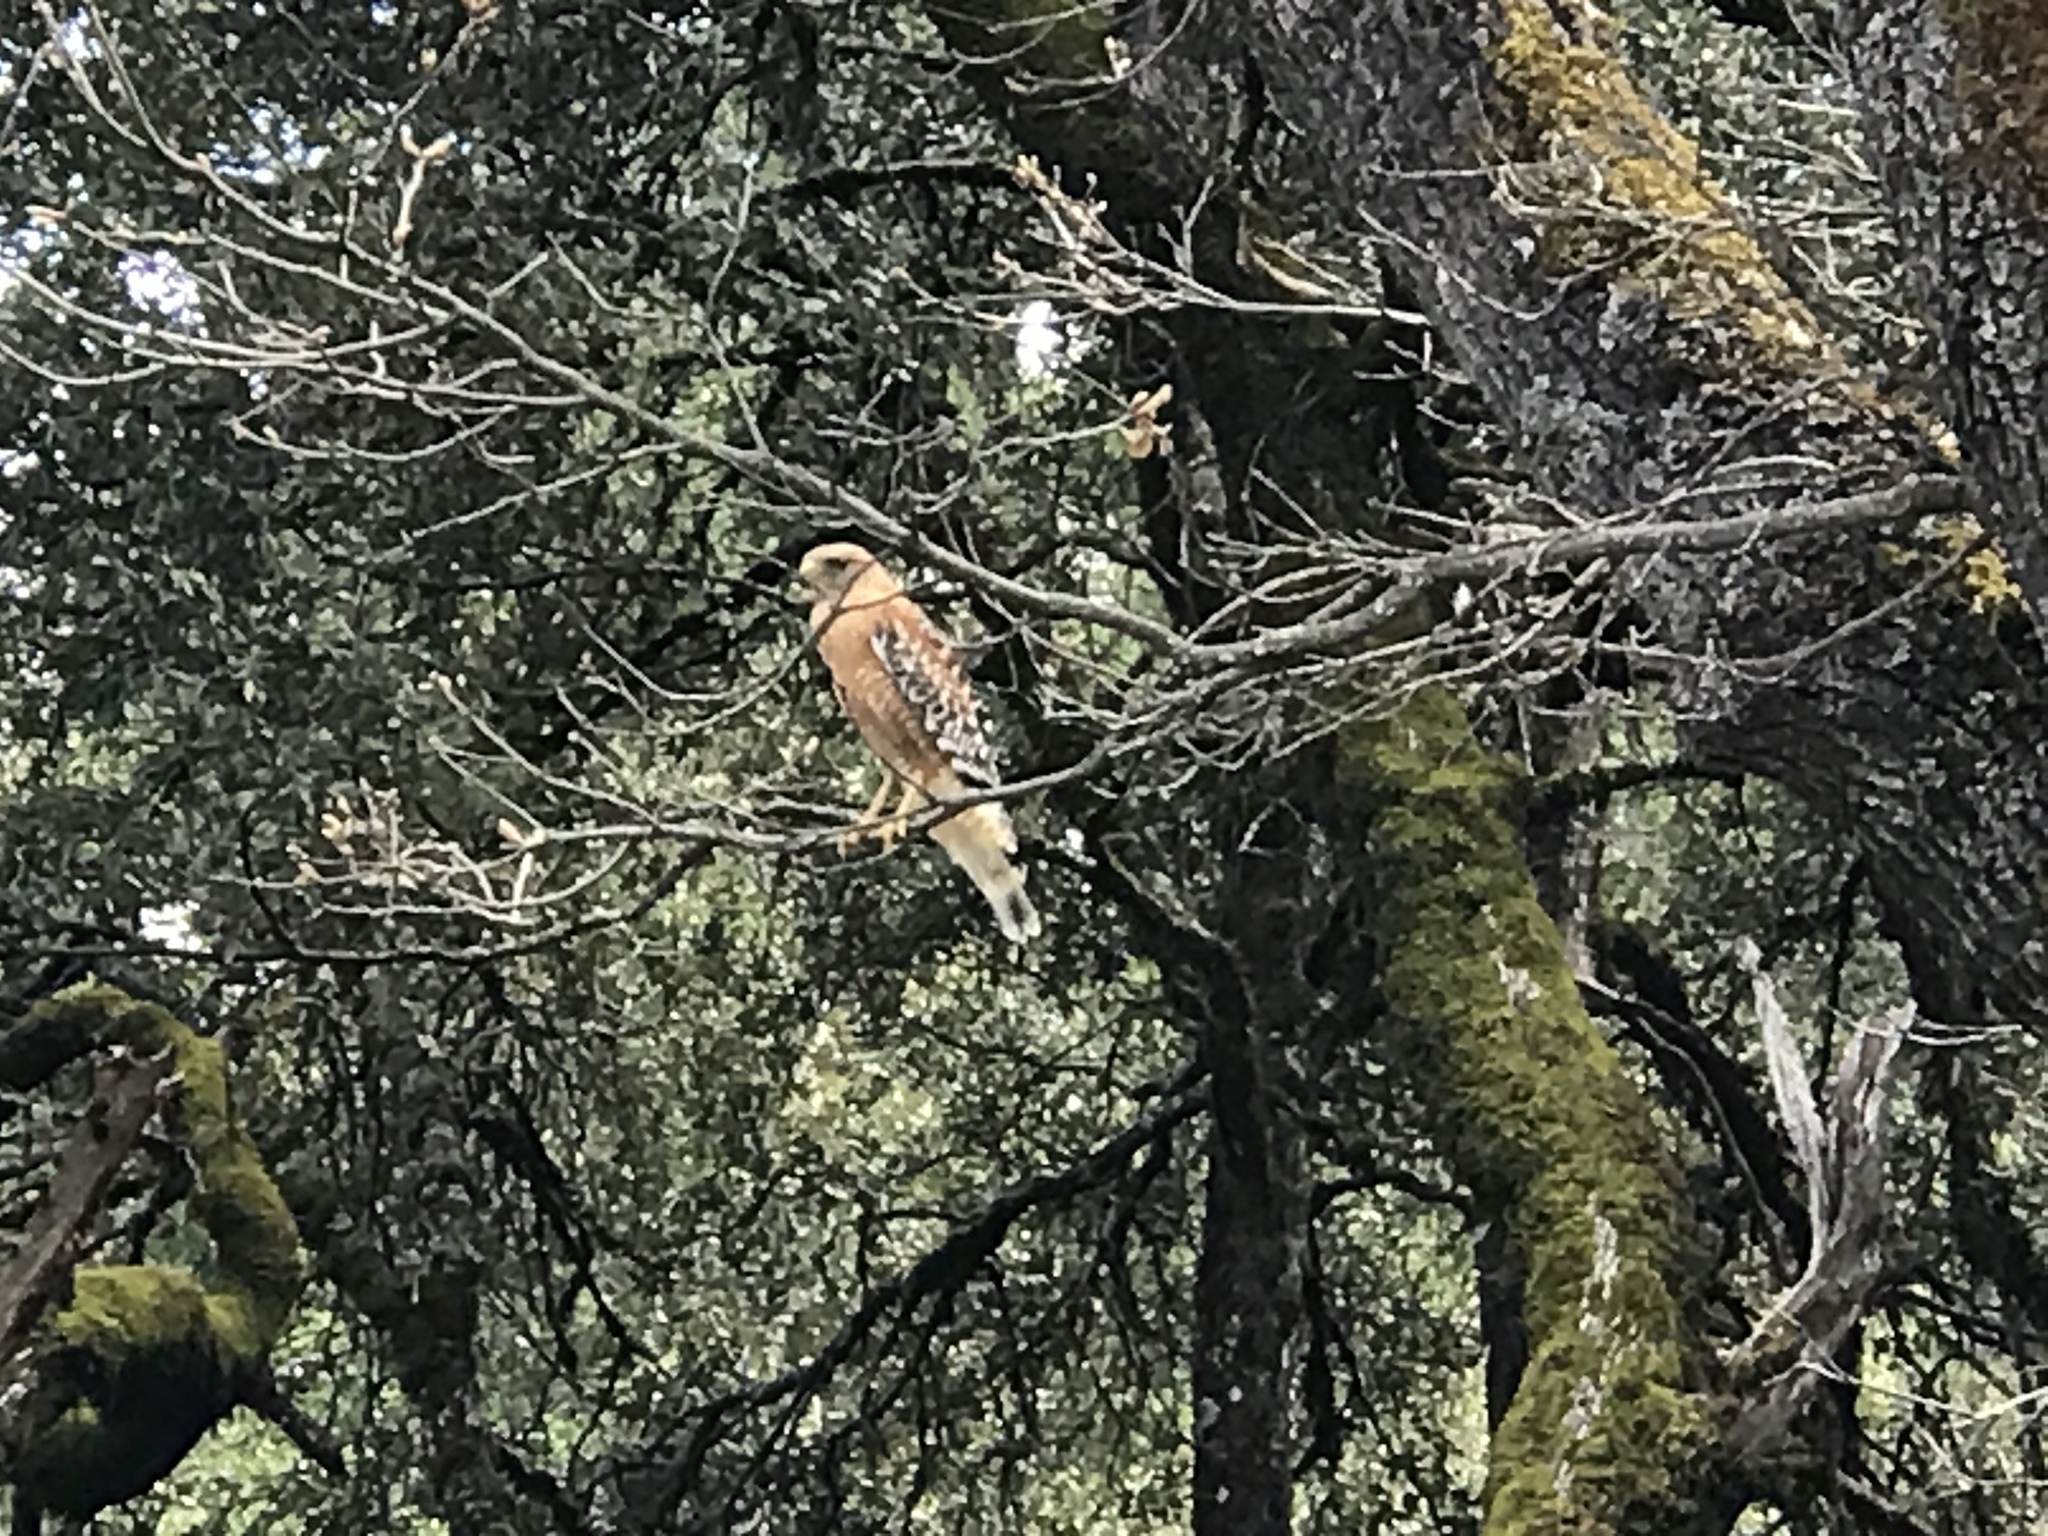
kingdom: Animalia
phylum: Chordata
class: Aves
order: Accipitriformes
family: Accipitridae
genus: Buteo
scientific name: Buteo lineatus
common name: Red-shouldered hawk
